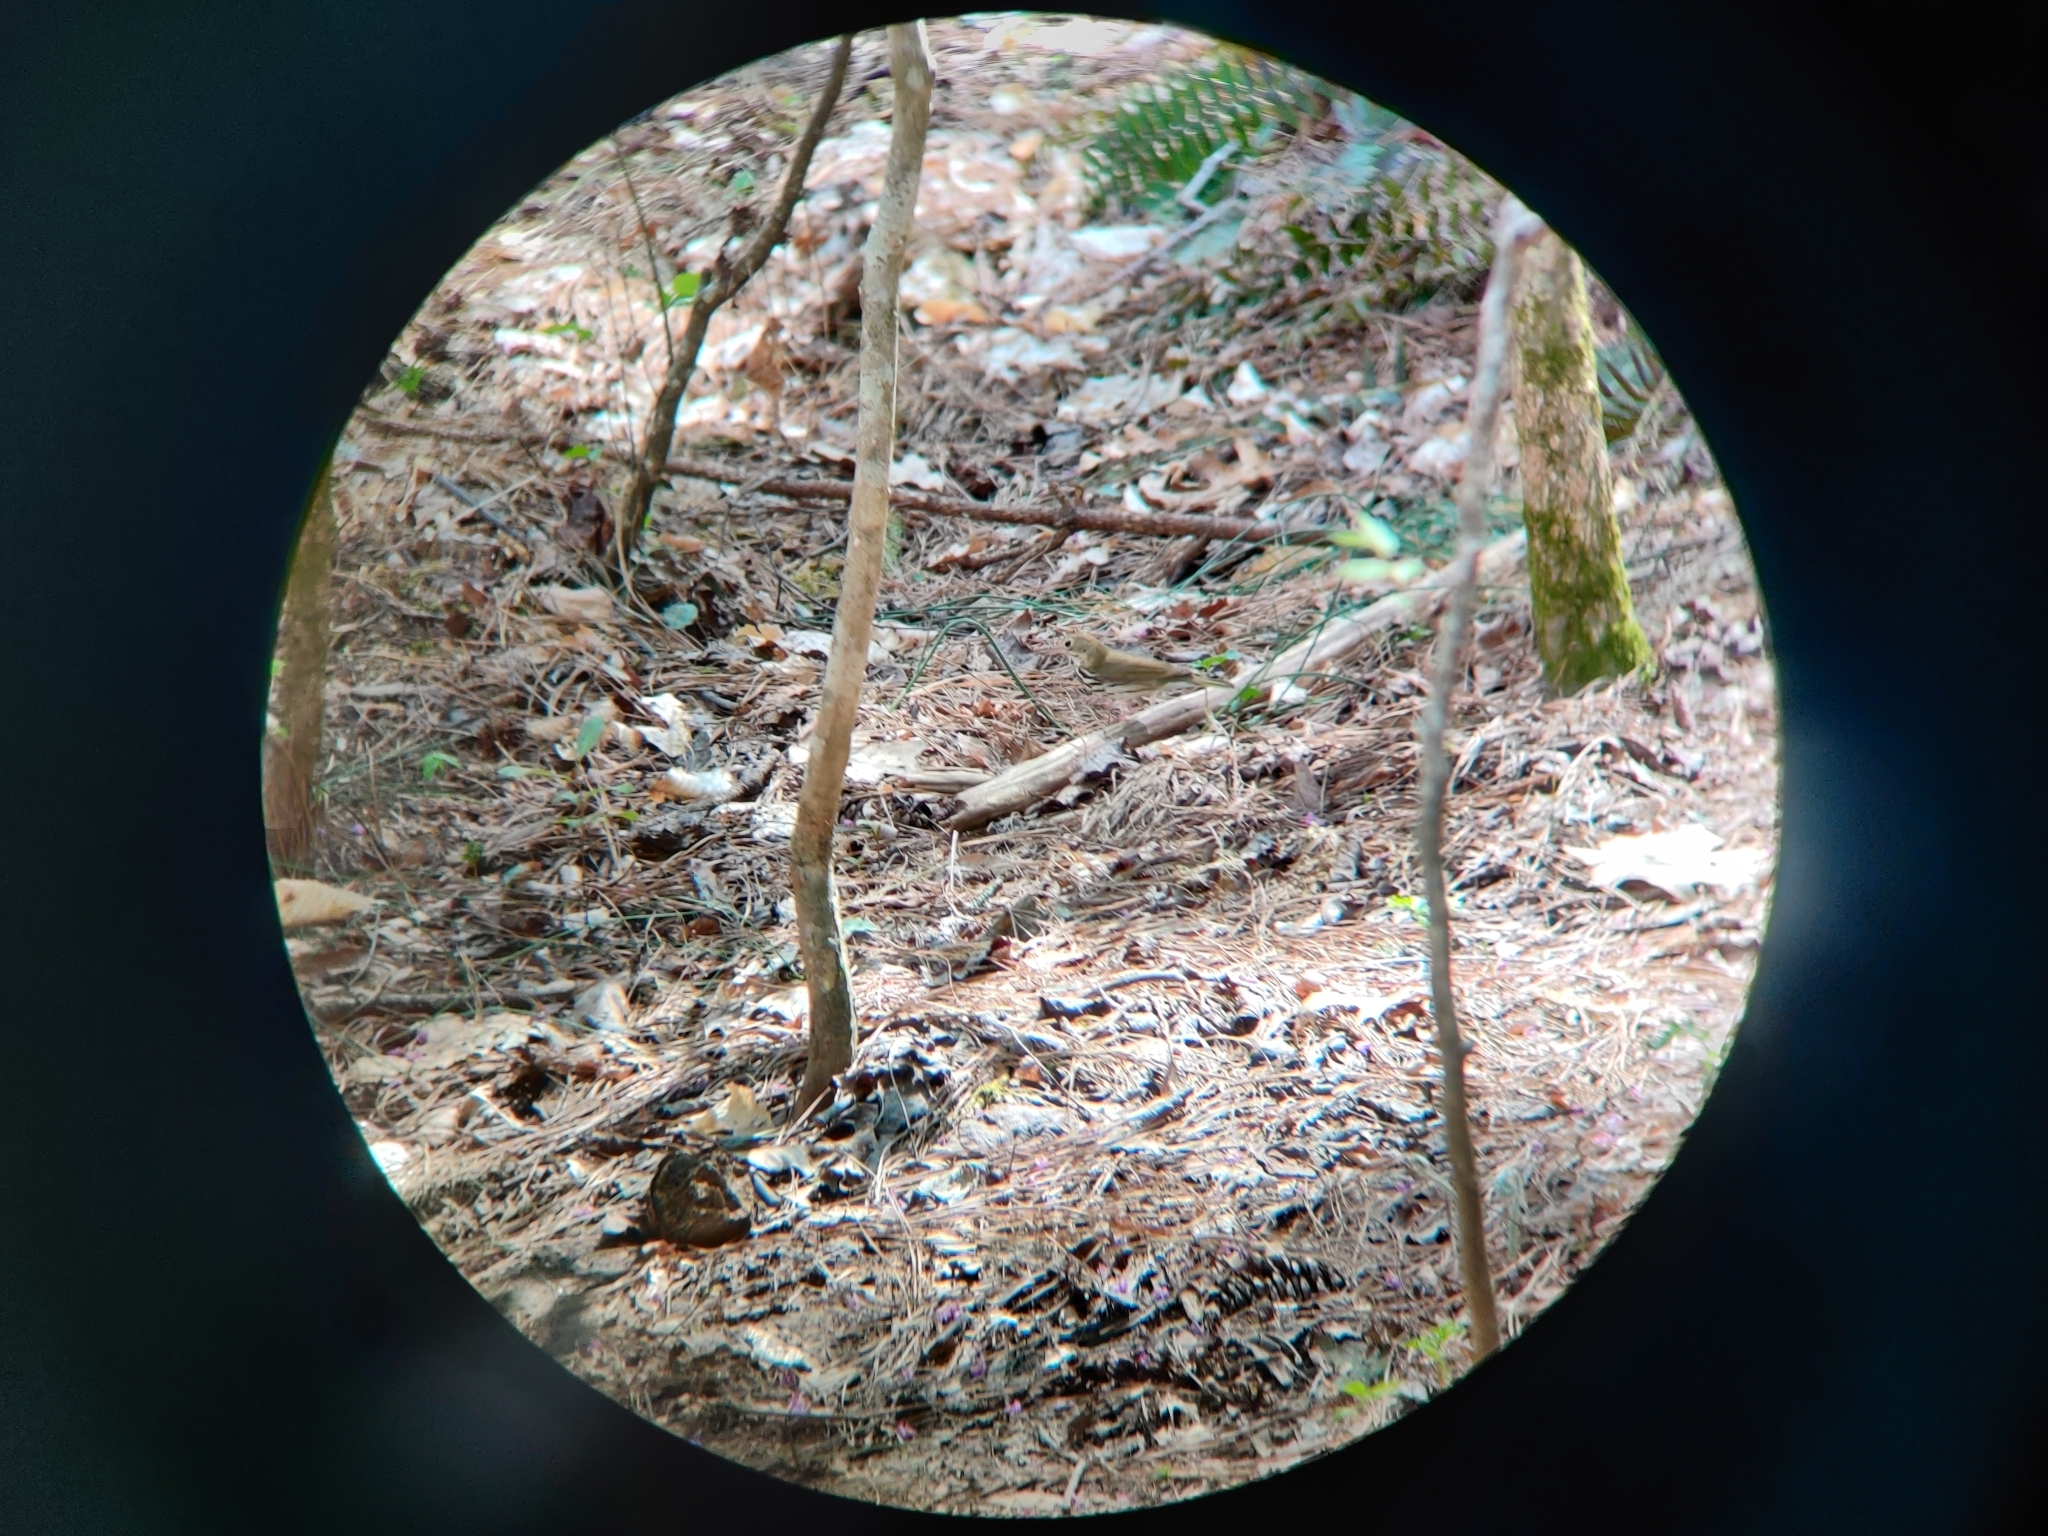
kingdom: Animalia
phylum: Chordata
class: Aves
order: Passeriformes
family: Parulidae
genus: Seiurus
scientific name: Seiurus aurocapilla
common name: Ovenbird
